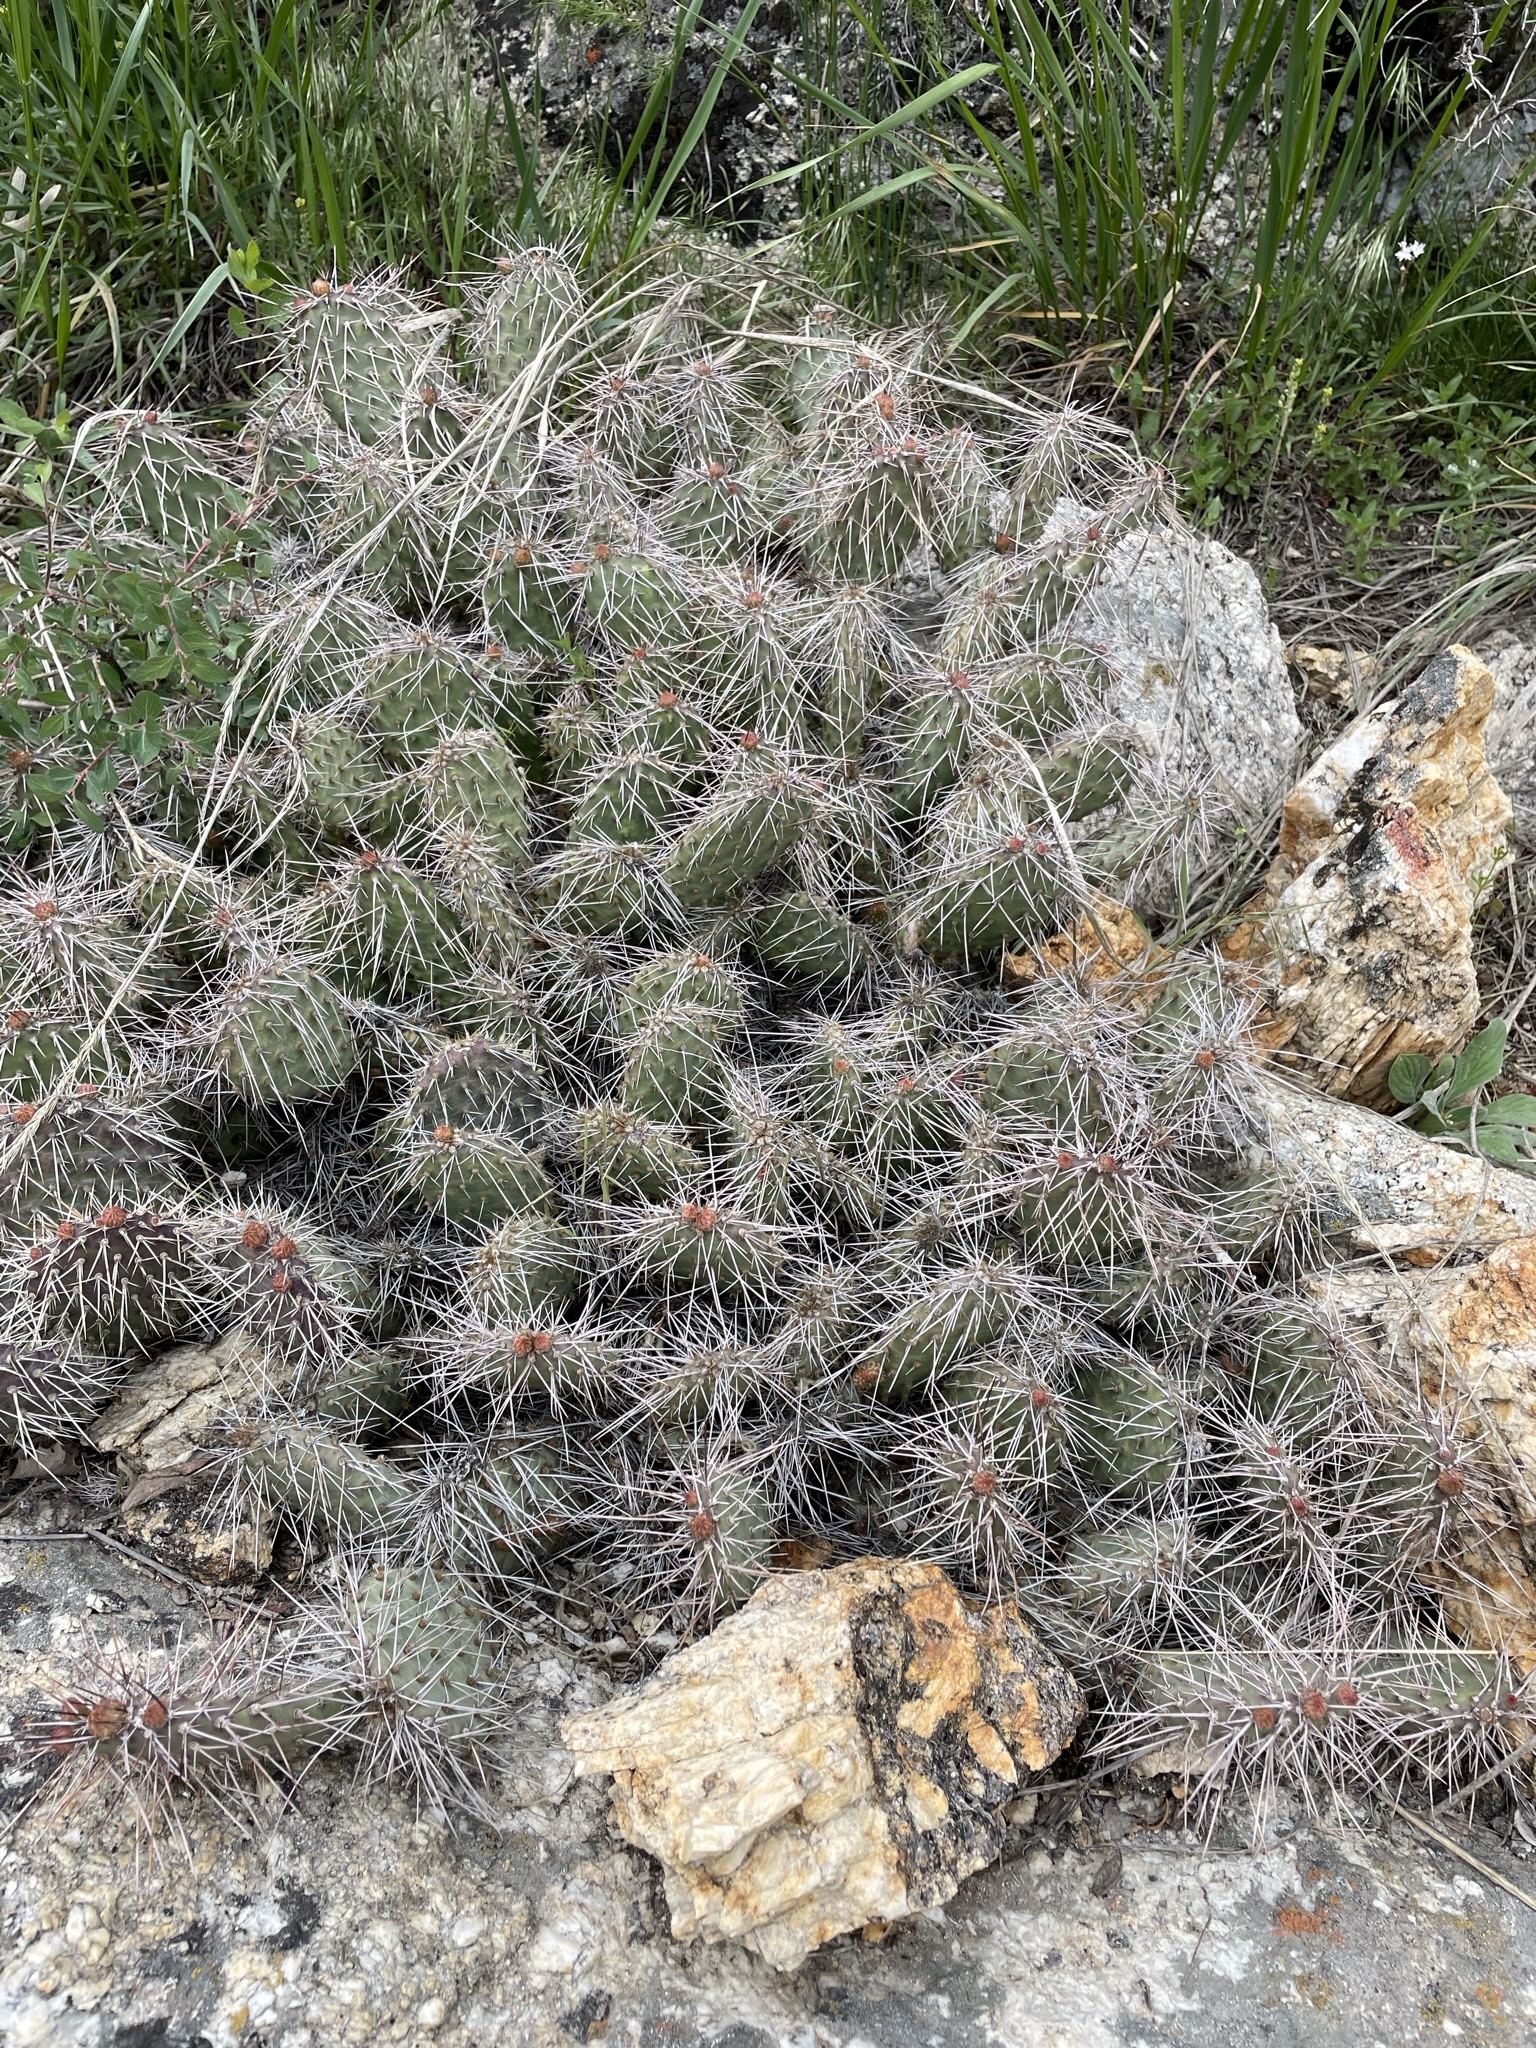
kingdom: Plantae
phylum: Tracheophyta
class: Magnoliopsida
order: Caryophyllales
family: Cactaceae
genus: Opuntia
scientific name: Opuntia polyacantha
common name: Plains prickly-pear
